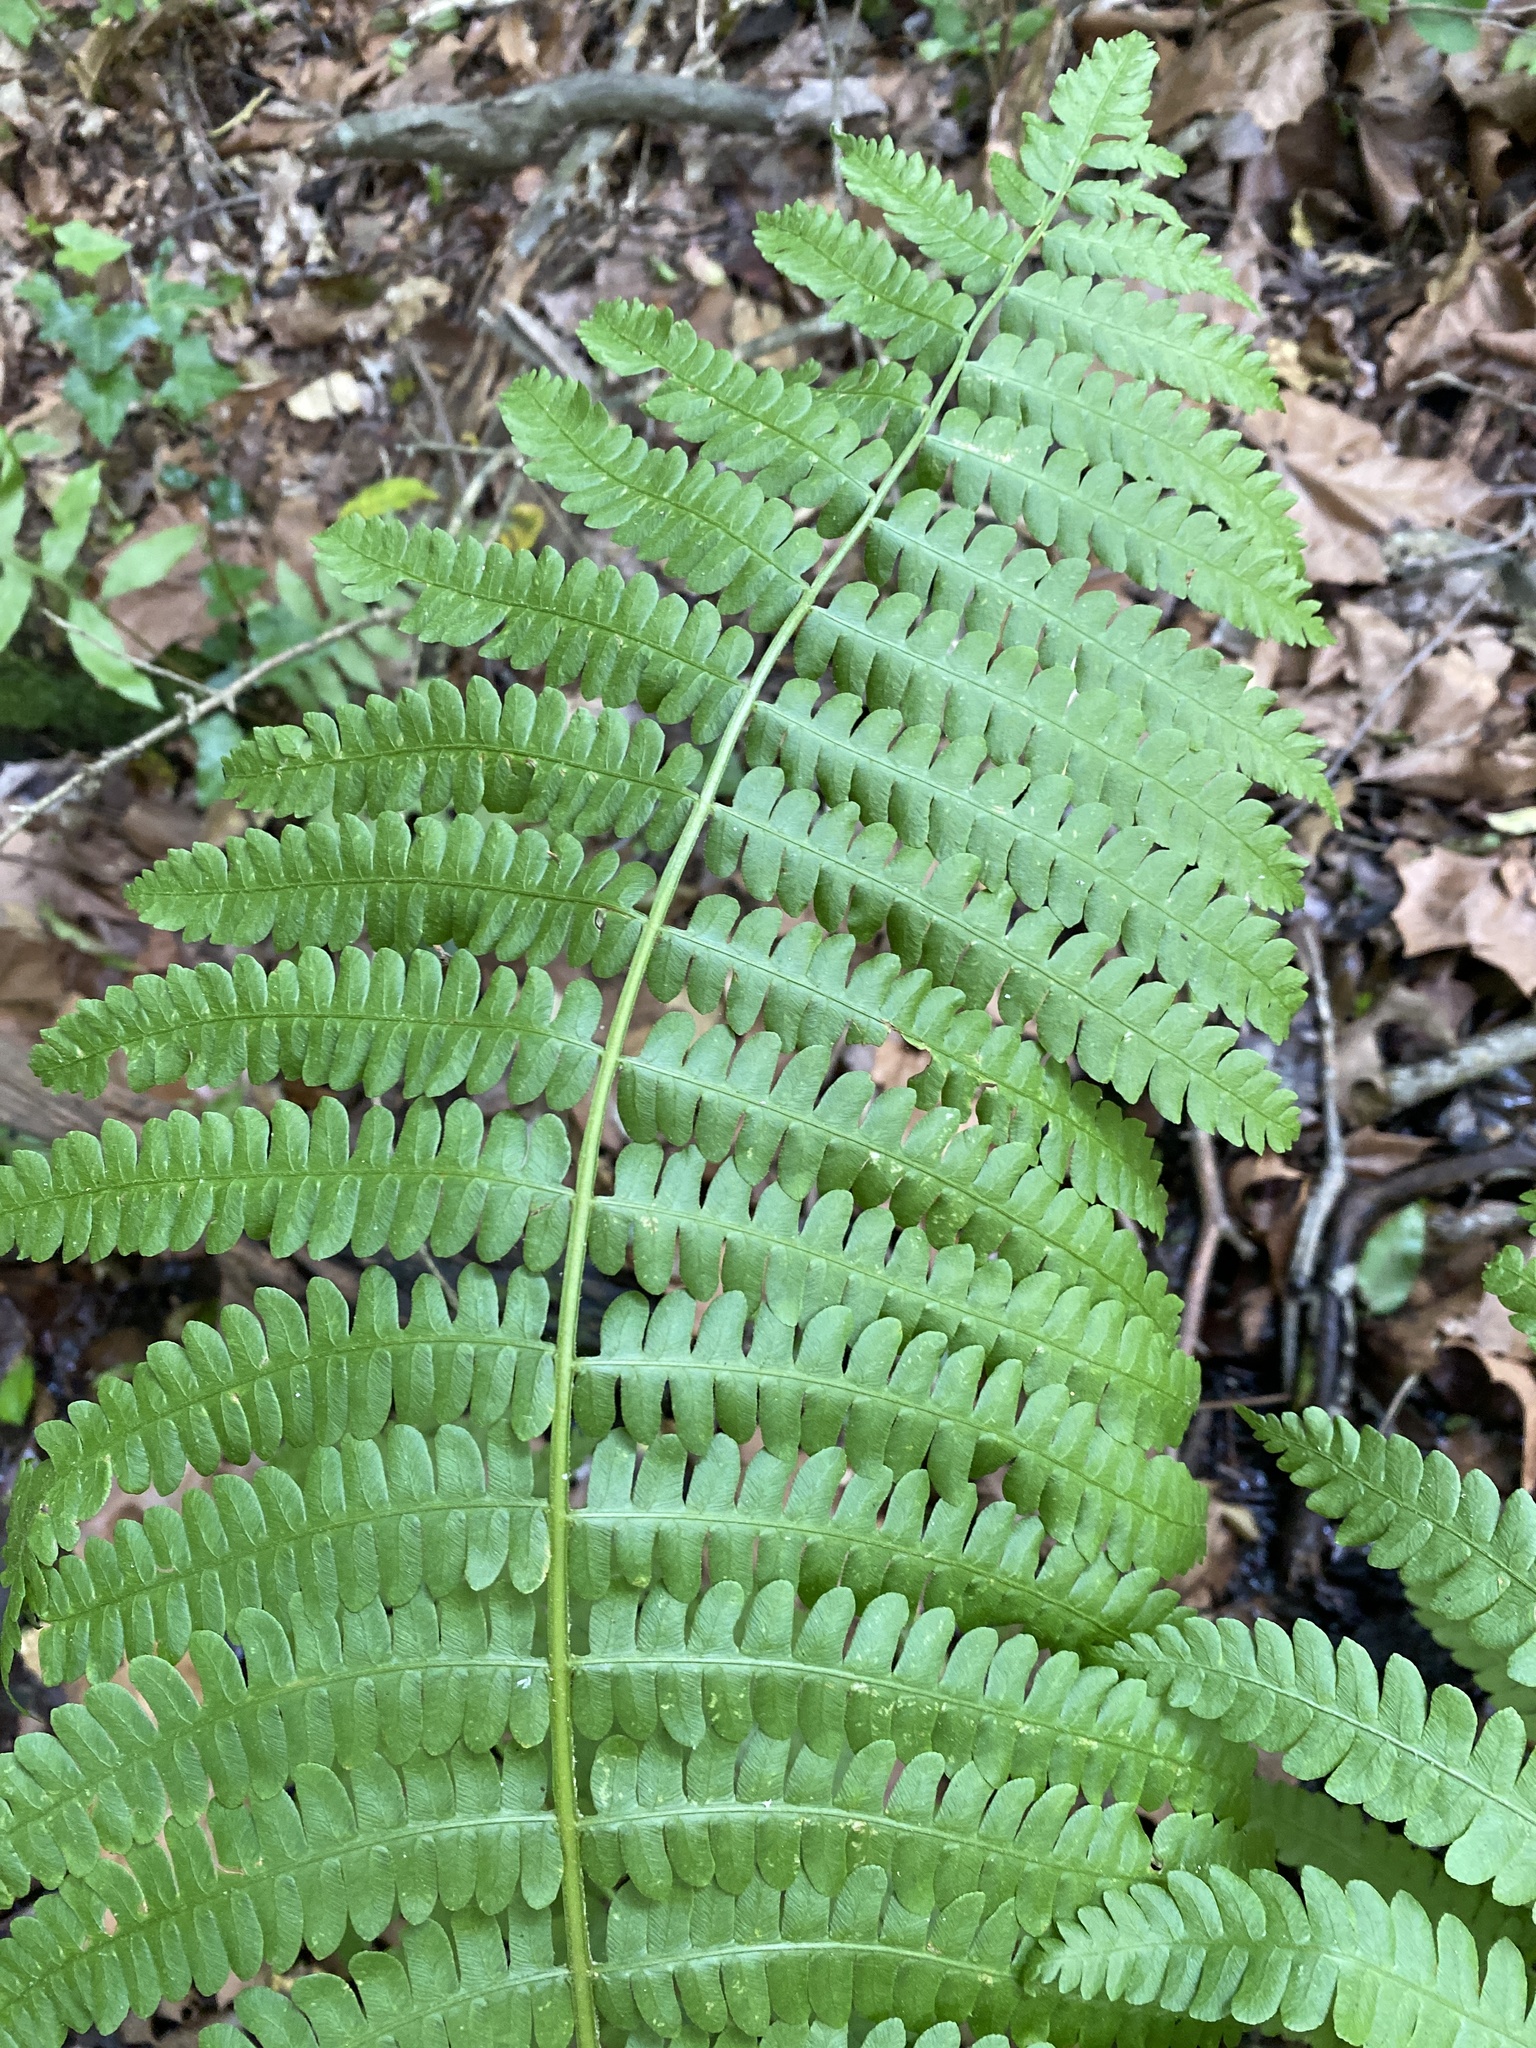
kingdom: Plantae
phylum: Tracheophyta
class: Polypodiopsida
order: Osmundales
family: Osmundaceae
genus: Osmundastrum
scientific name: Osmundastrum cinnamomeum
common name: Cinnamon fern
